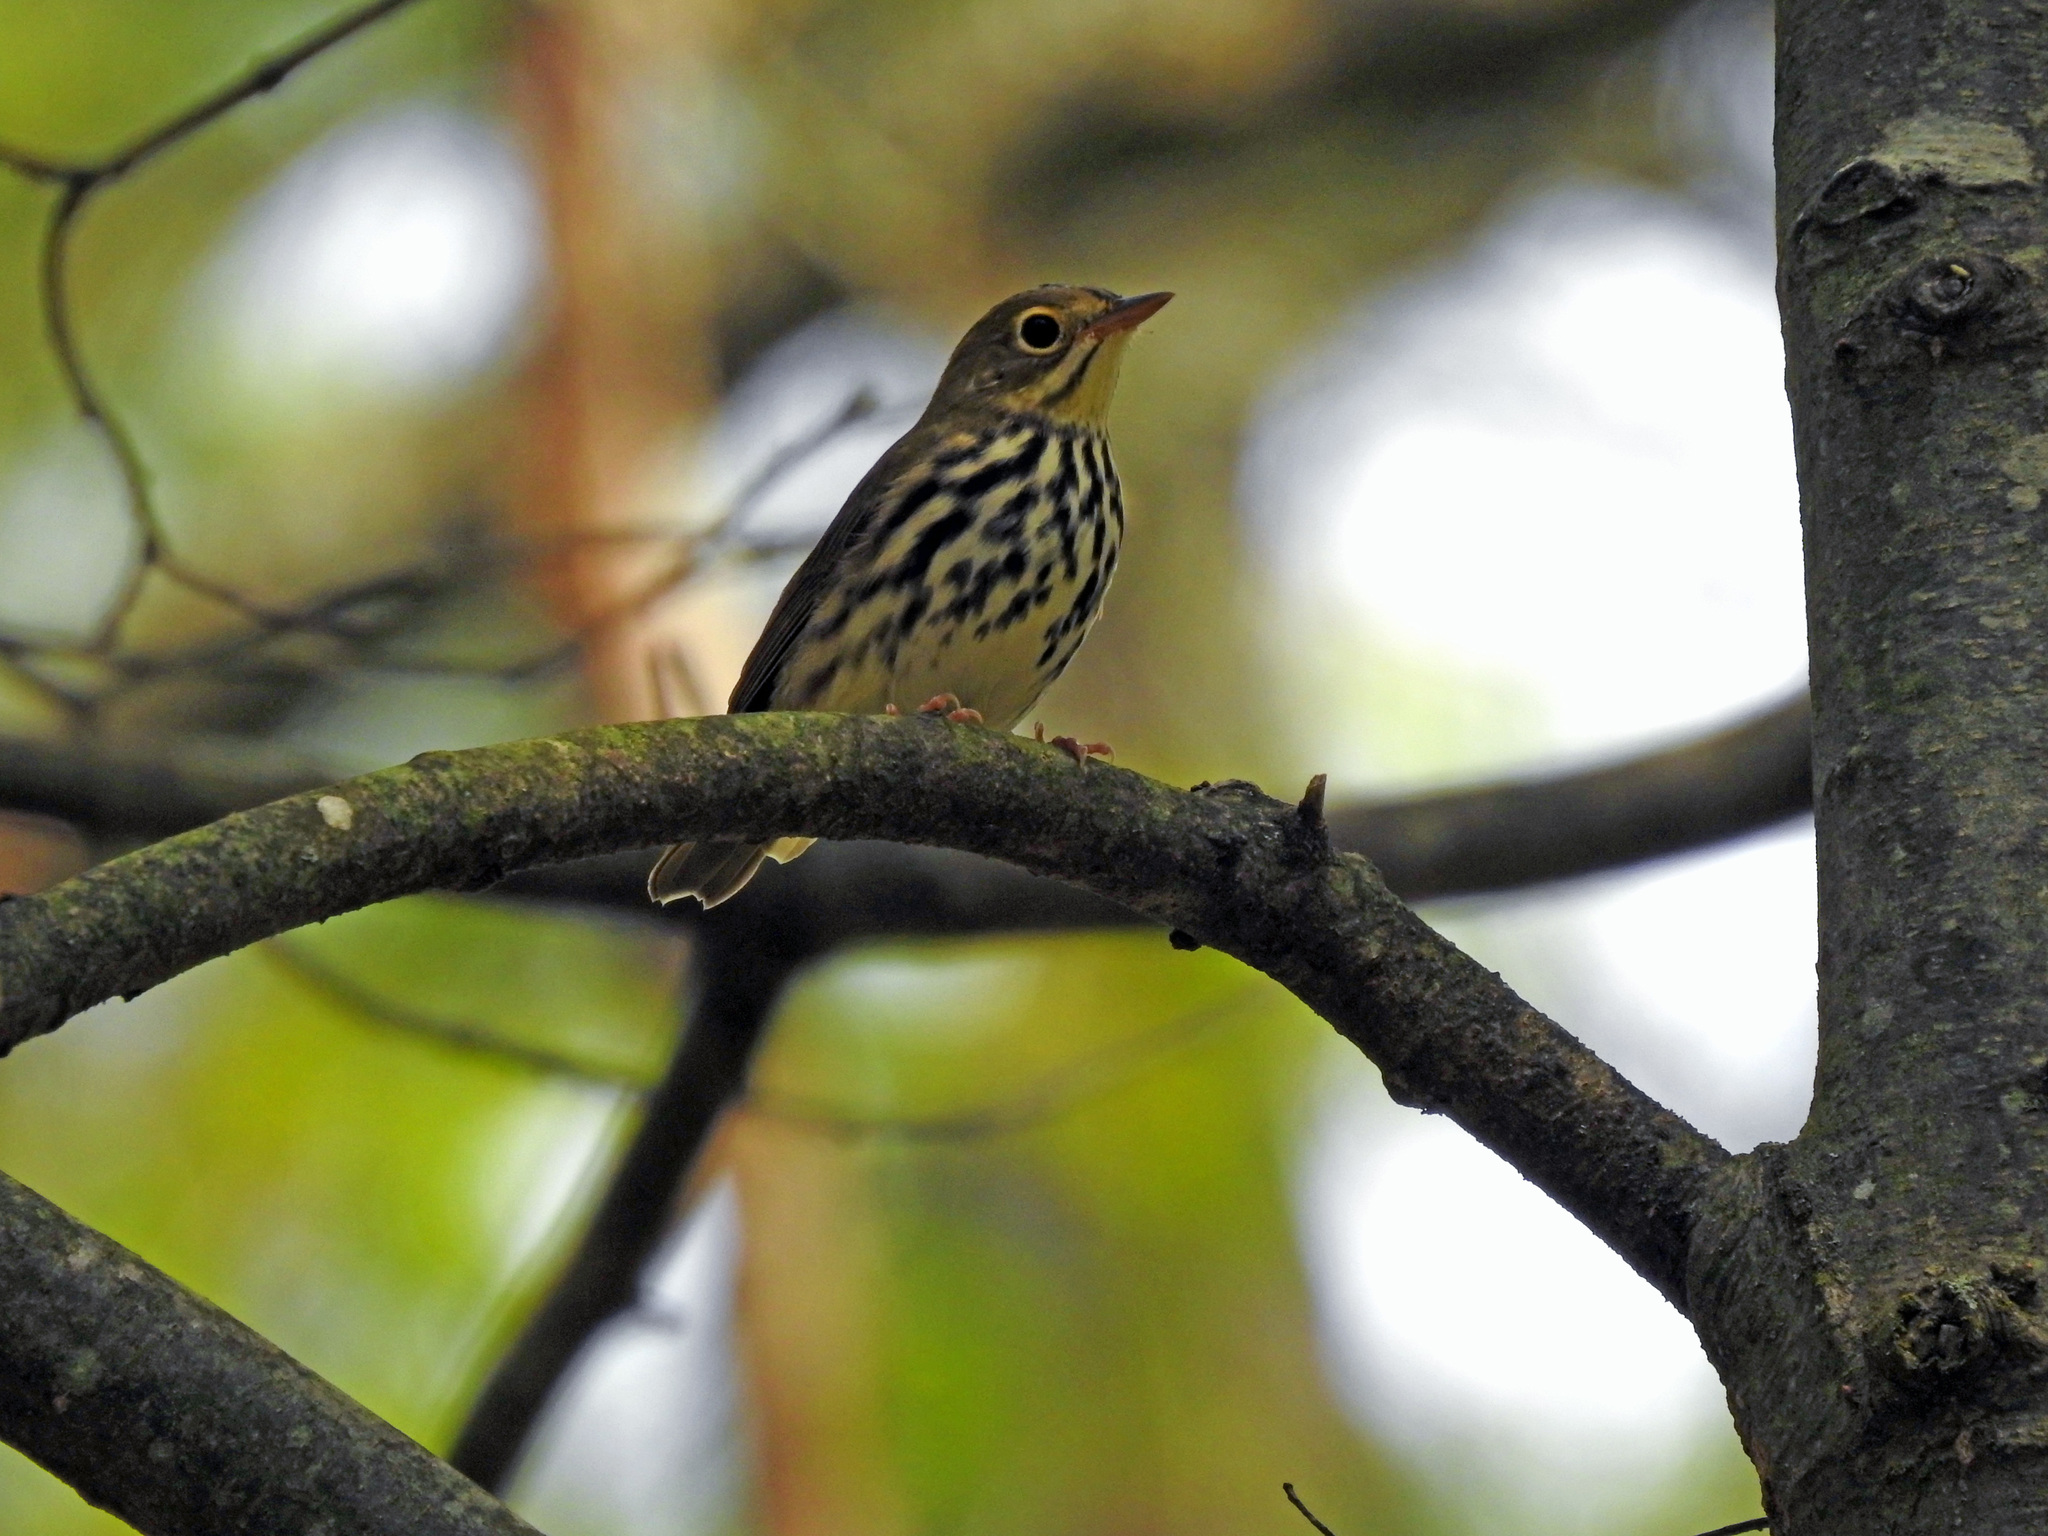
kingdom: Animalia
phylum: Chordata
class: Aves
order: Passeriformes
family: Parulidae
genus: Seiurus
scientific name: Seiurus aurocapilla
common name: Ovenbird
